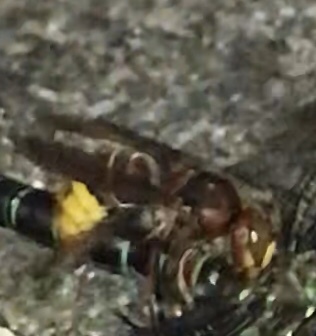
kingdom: Animalia
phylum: Arthropoda
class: Insecta
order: Hymenoptera
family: Vespidae
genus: Vespa
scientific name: Vespa crabro
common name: Hornet
